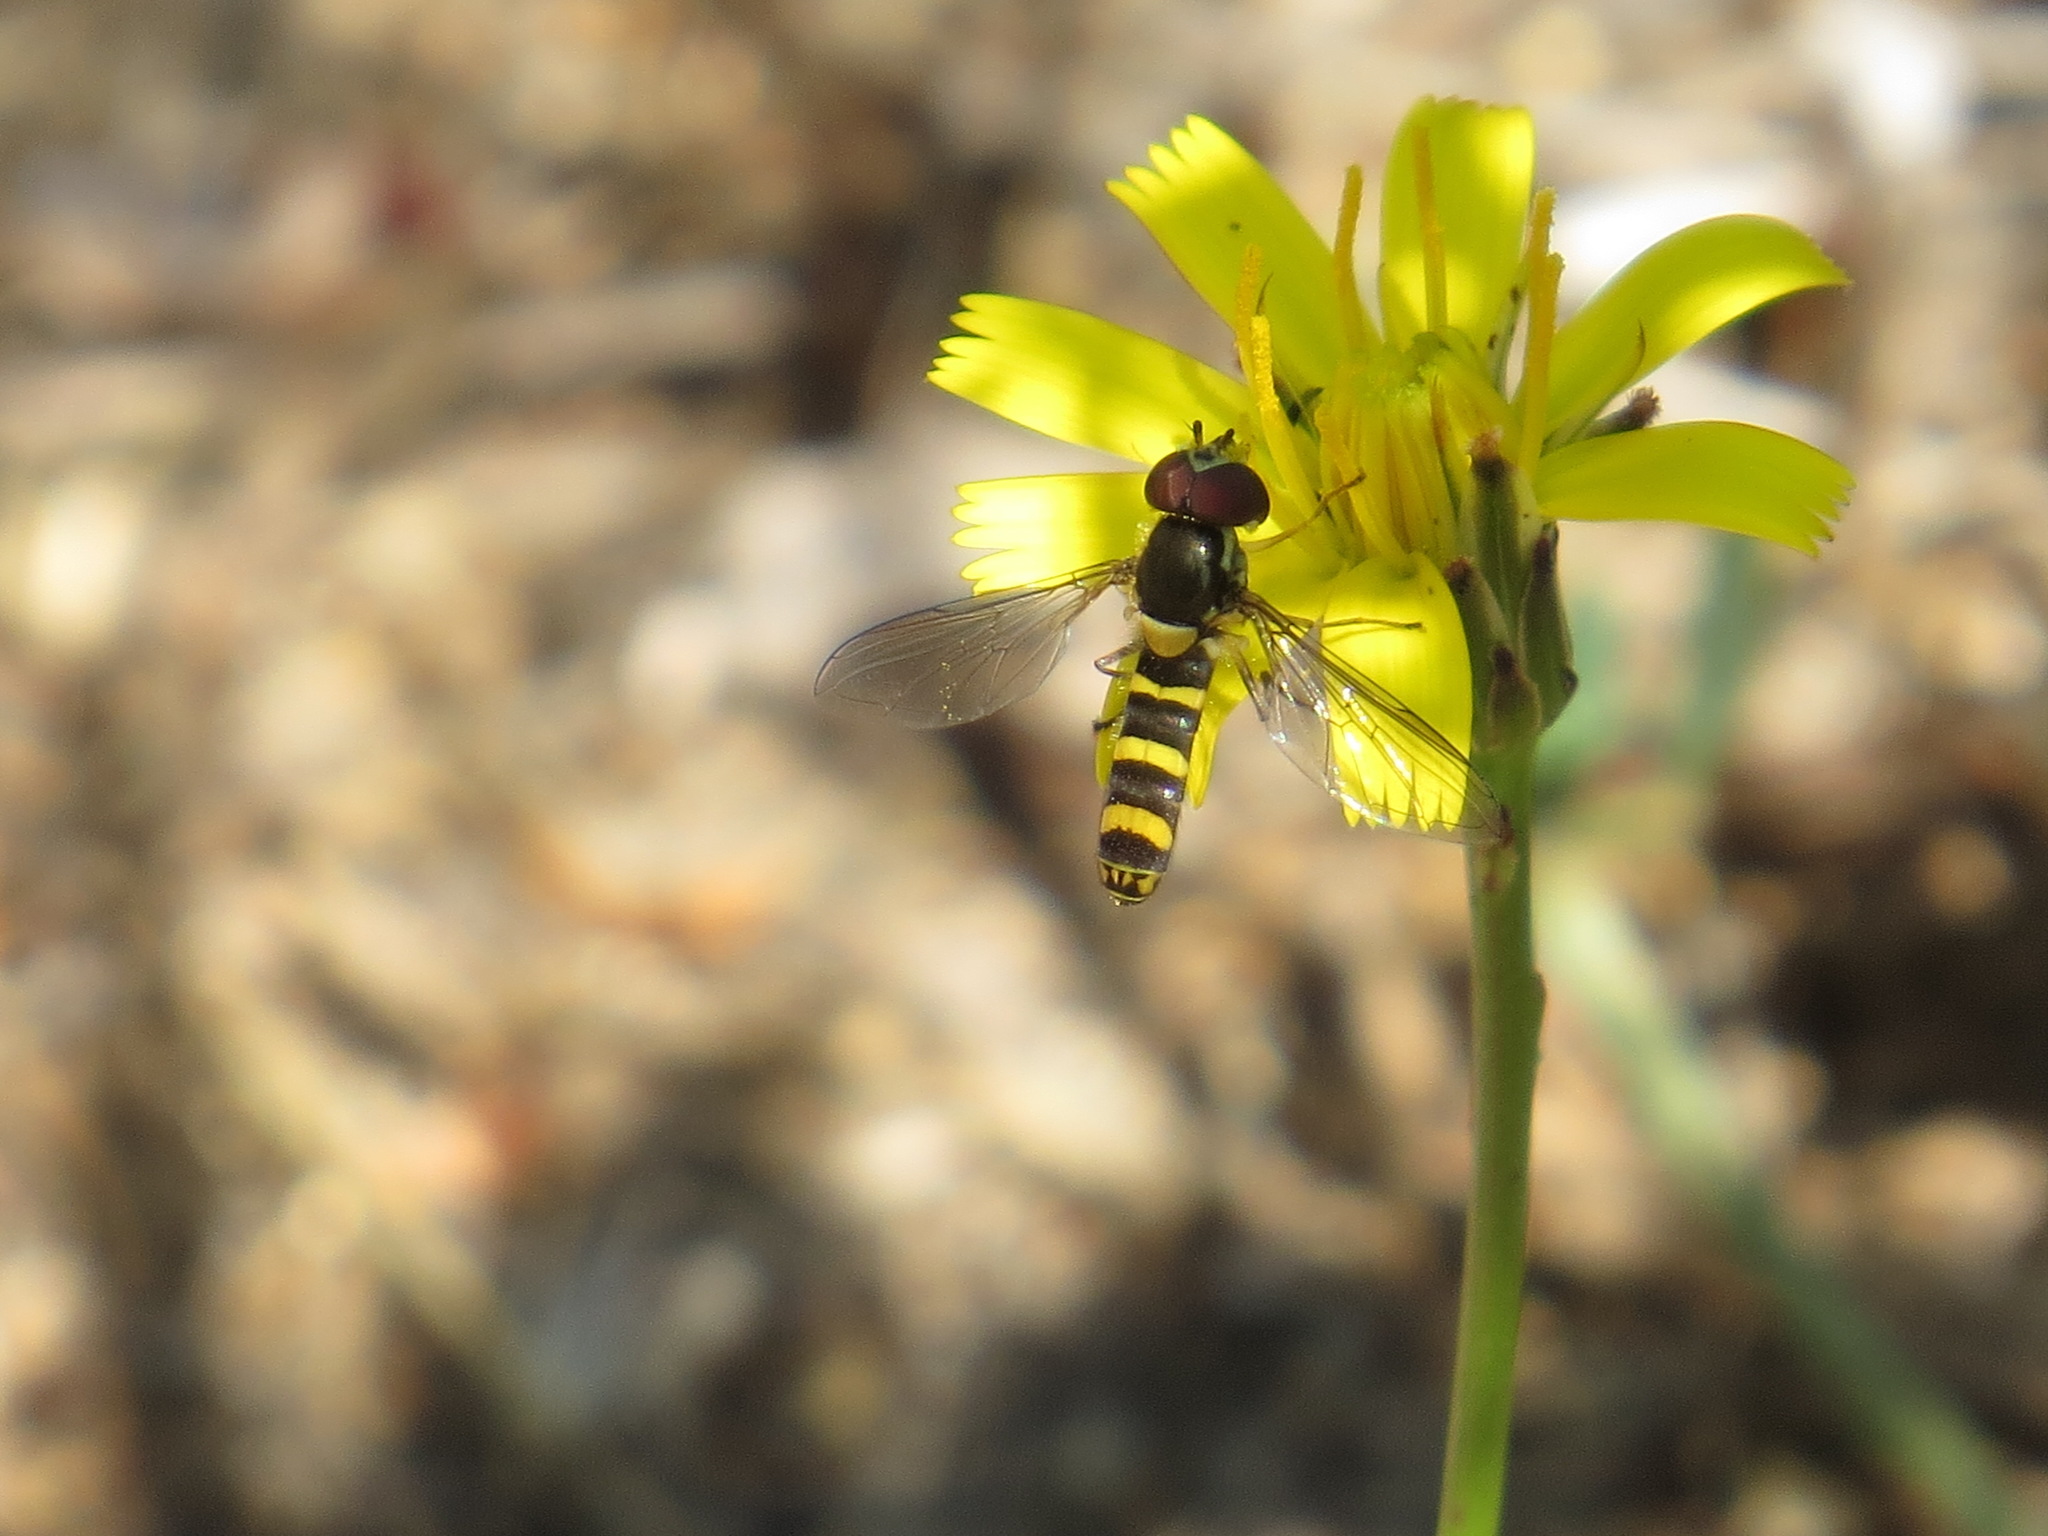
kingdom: Animalia
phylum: Arthropoda
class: Insecta
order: Diptera
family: Syrphidae
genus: Fazia
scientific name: Fazia micrura
